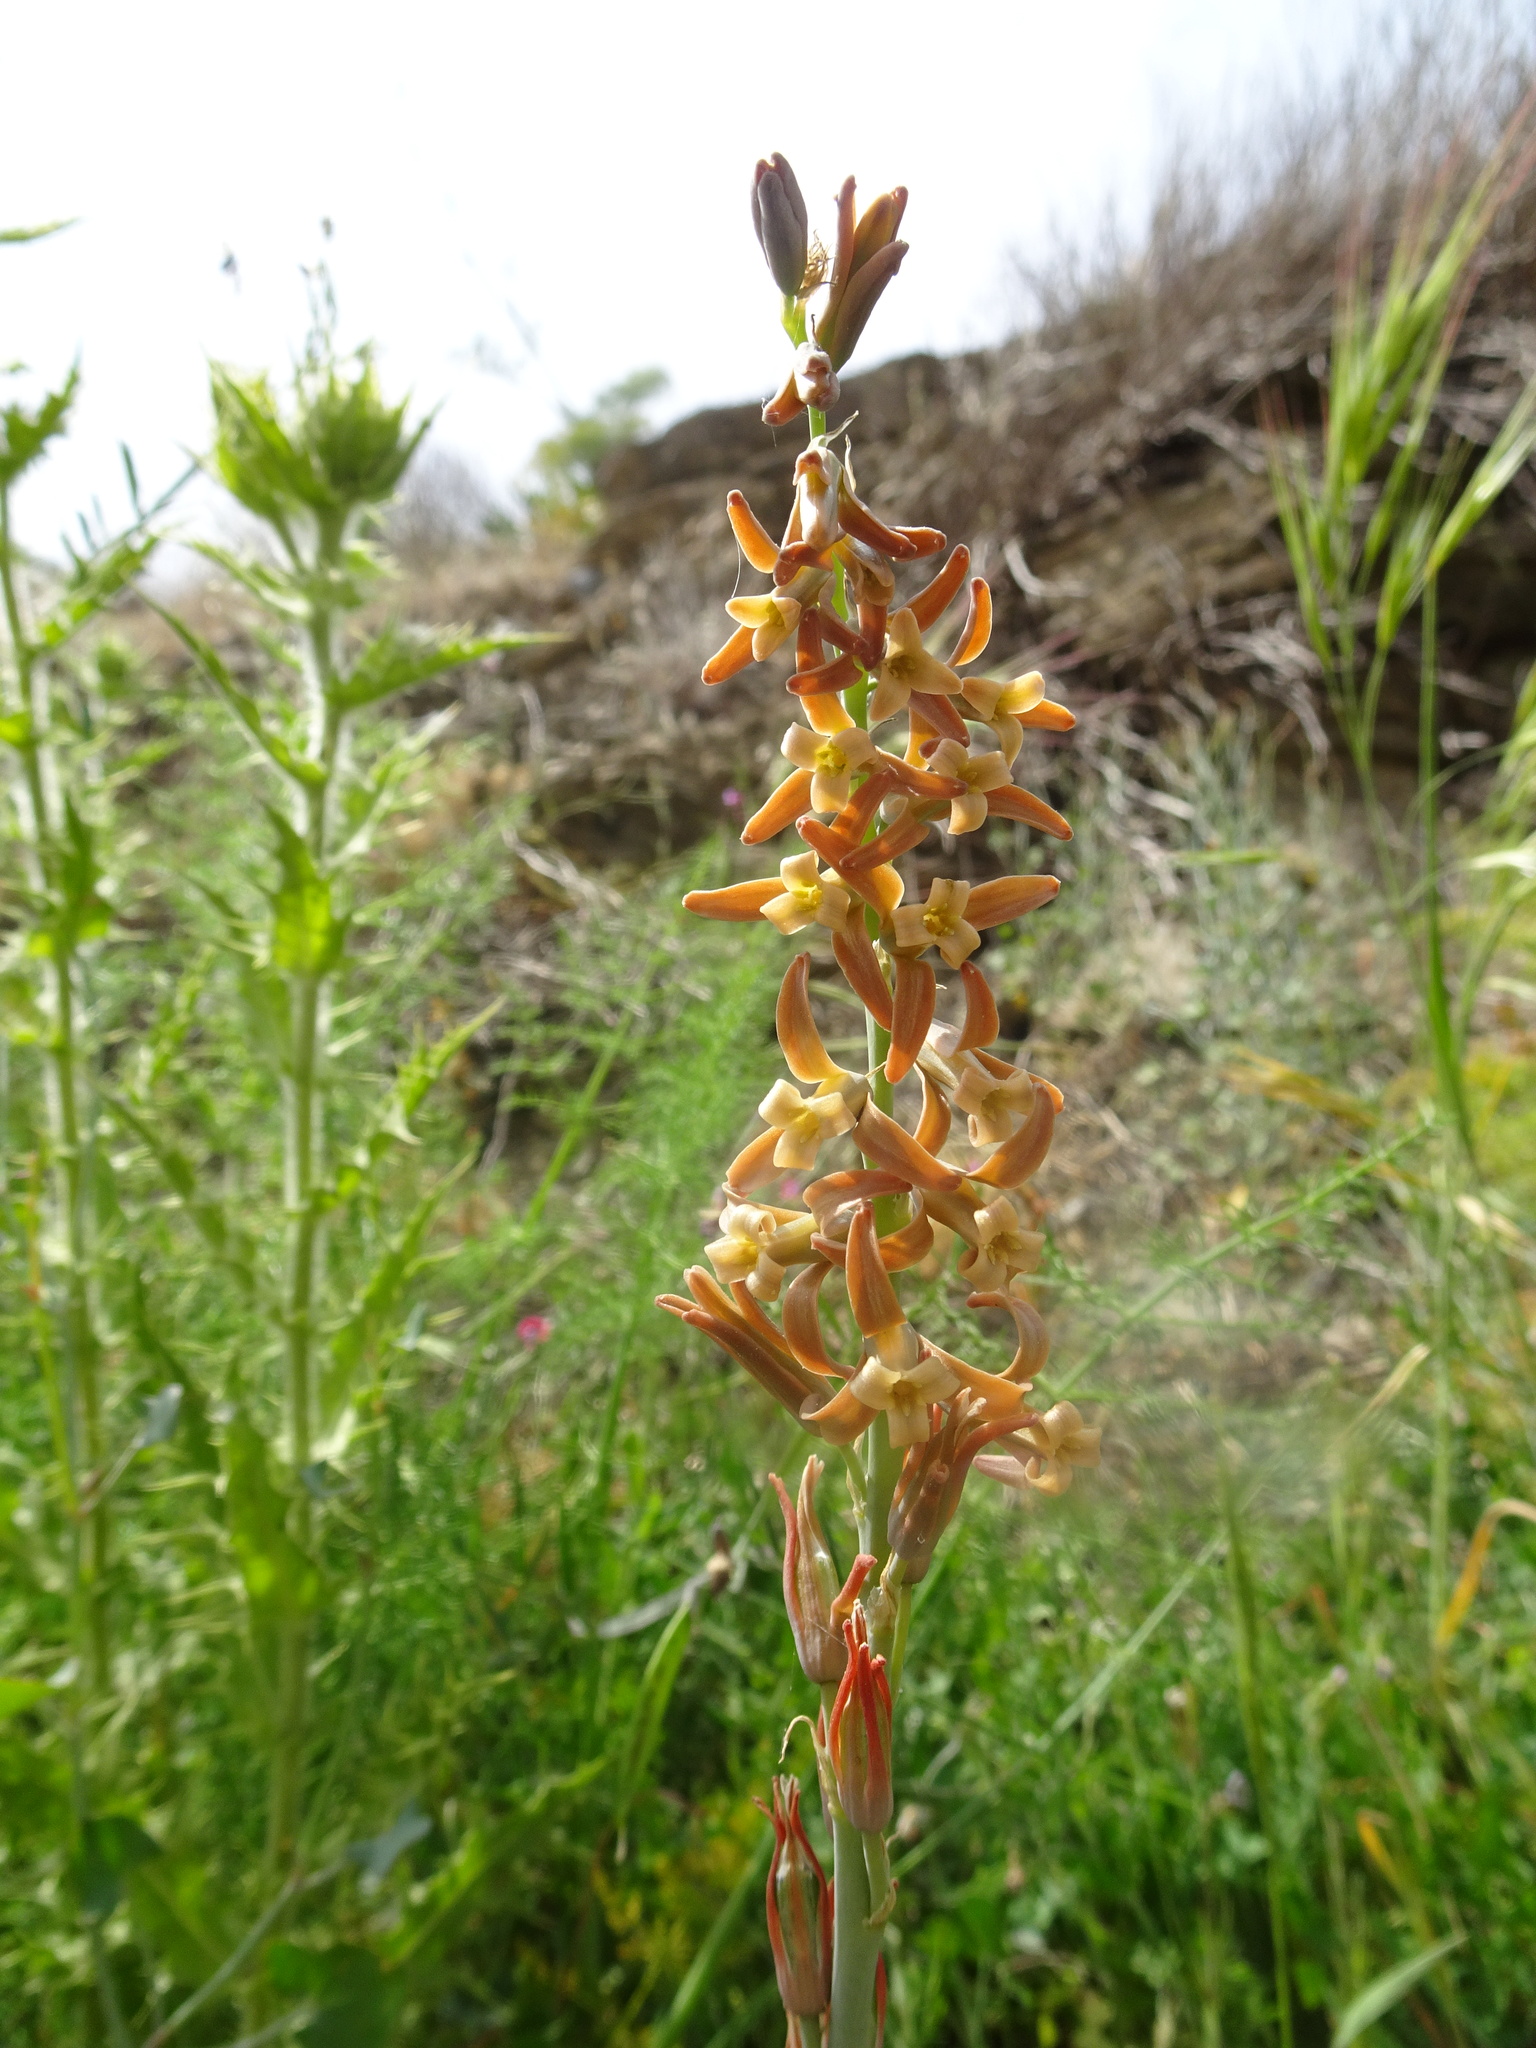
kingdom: Plantae
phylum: Tracheophyta
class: Liliopsida
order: Asparagales
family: Asparagaceae
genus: Dipcadi
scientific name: Dipcadi serotinum
